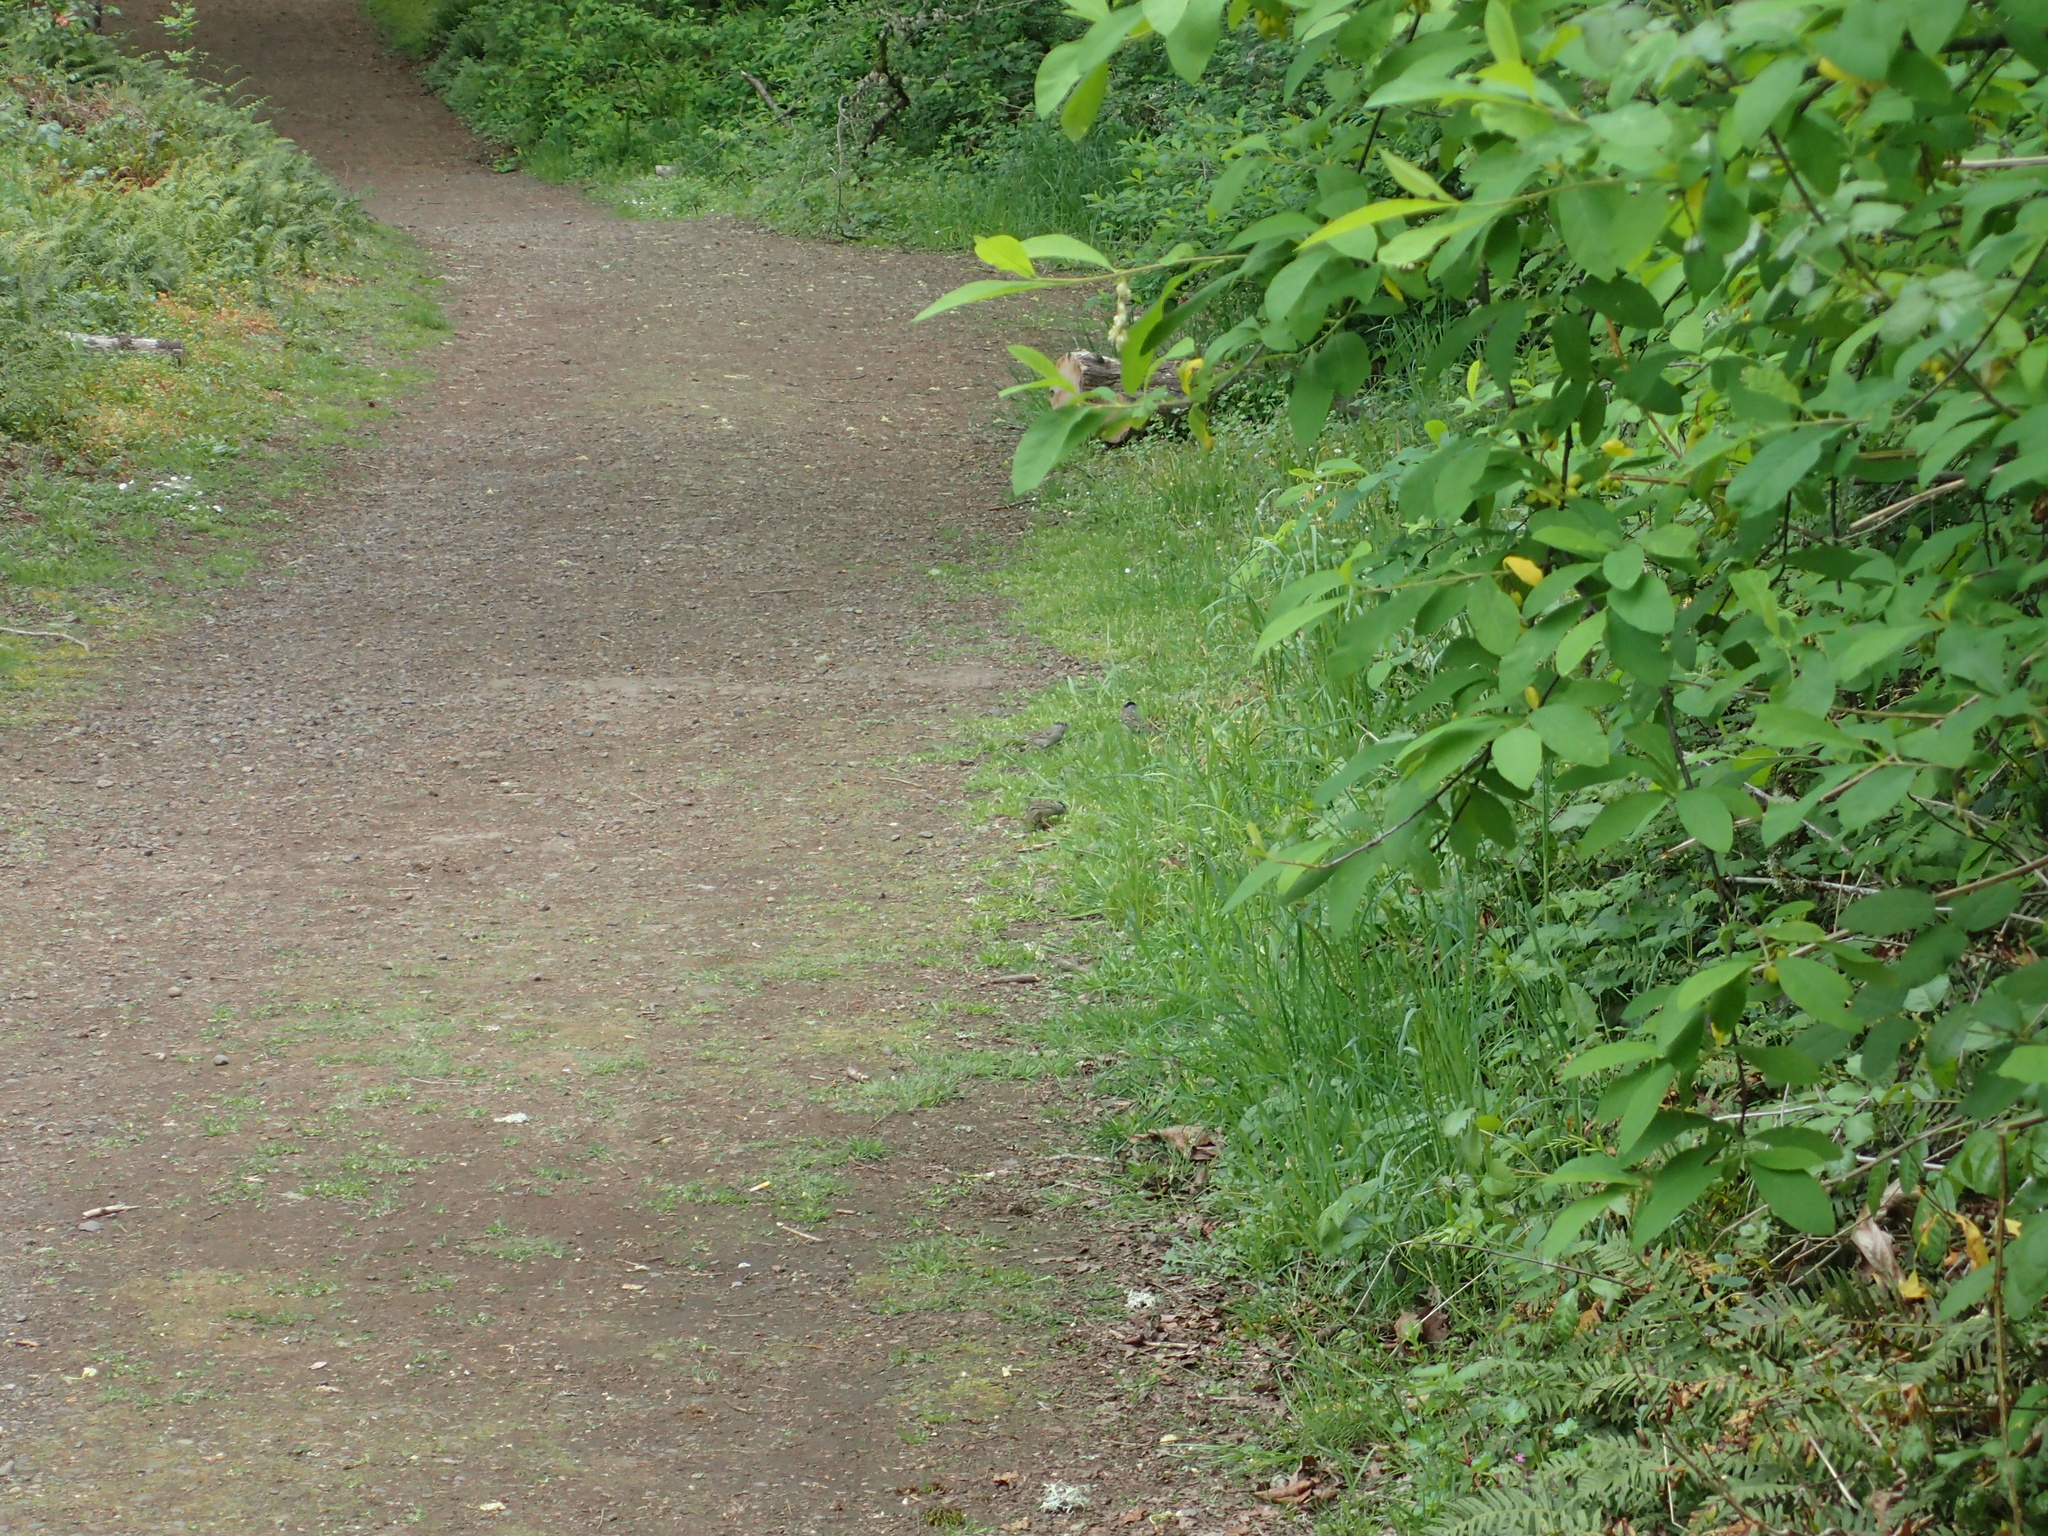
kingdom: Animalia
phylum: Chordata
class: Aves
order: Passeriformes
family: Passerellidae
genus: Zonotrichia
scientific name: Zonotrichia atricapilla
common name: Golden-crowned sparrow
